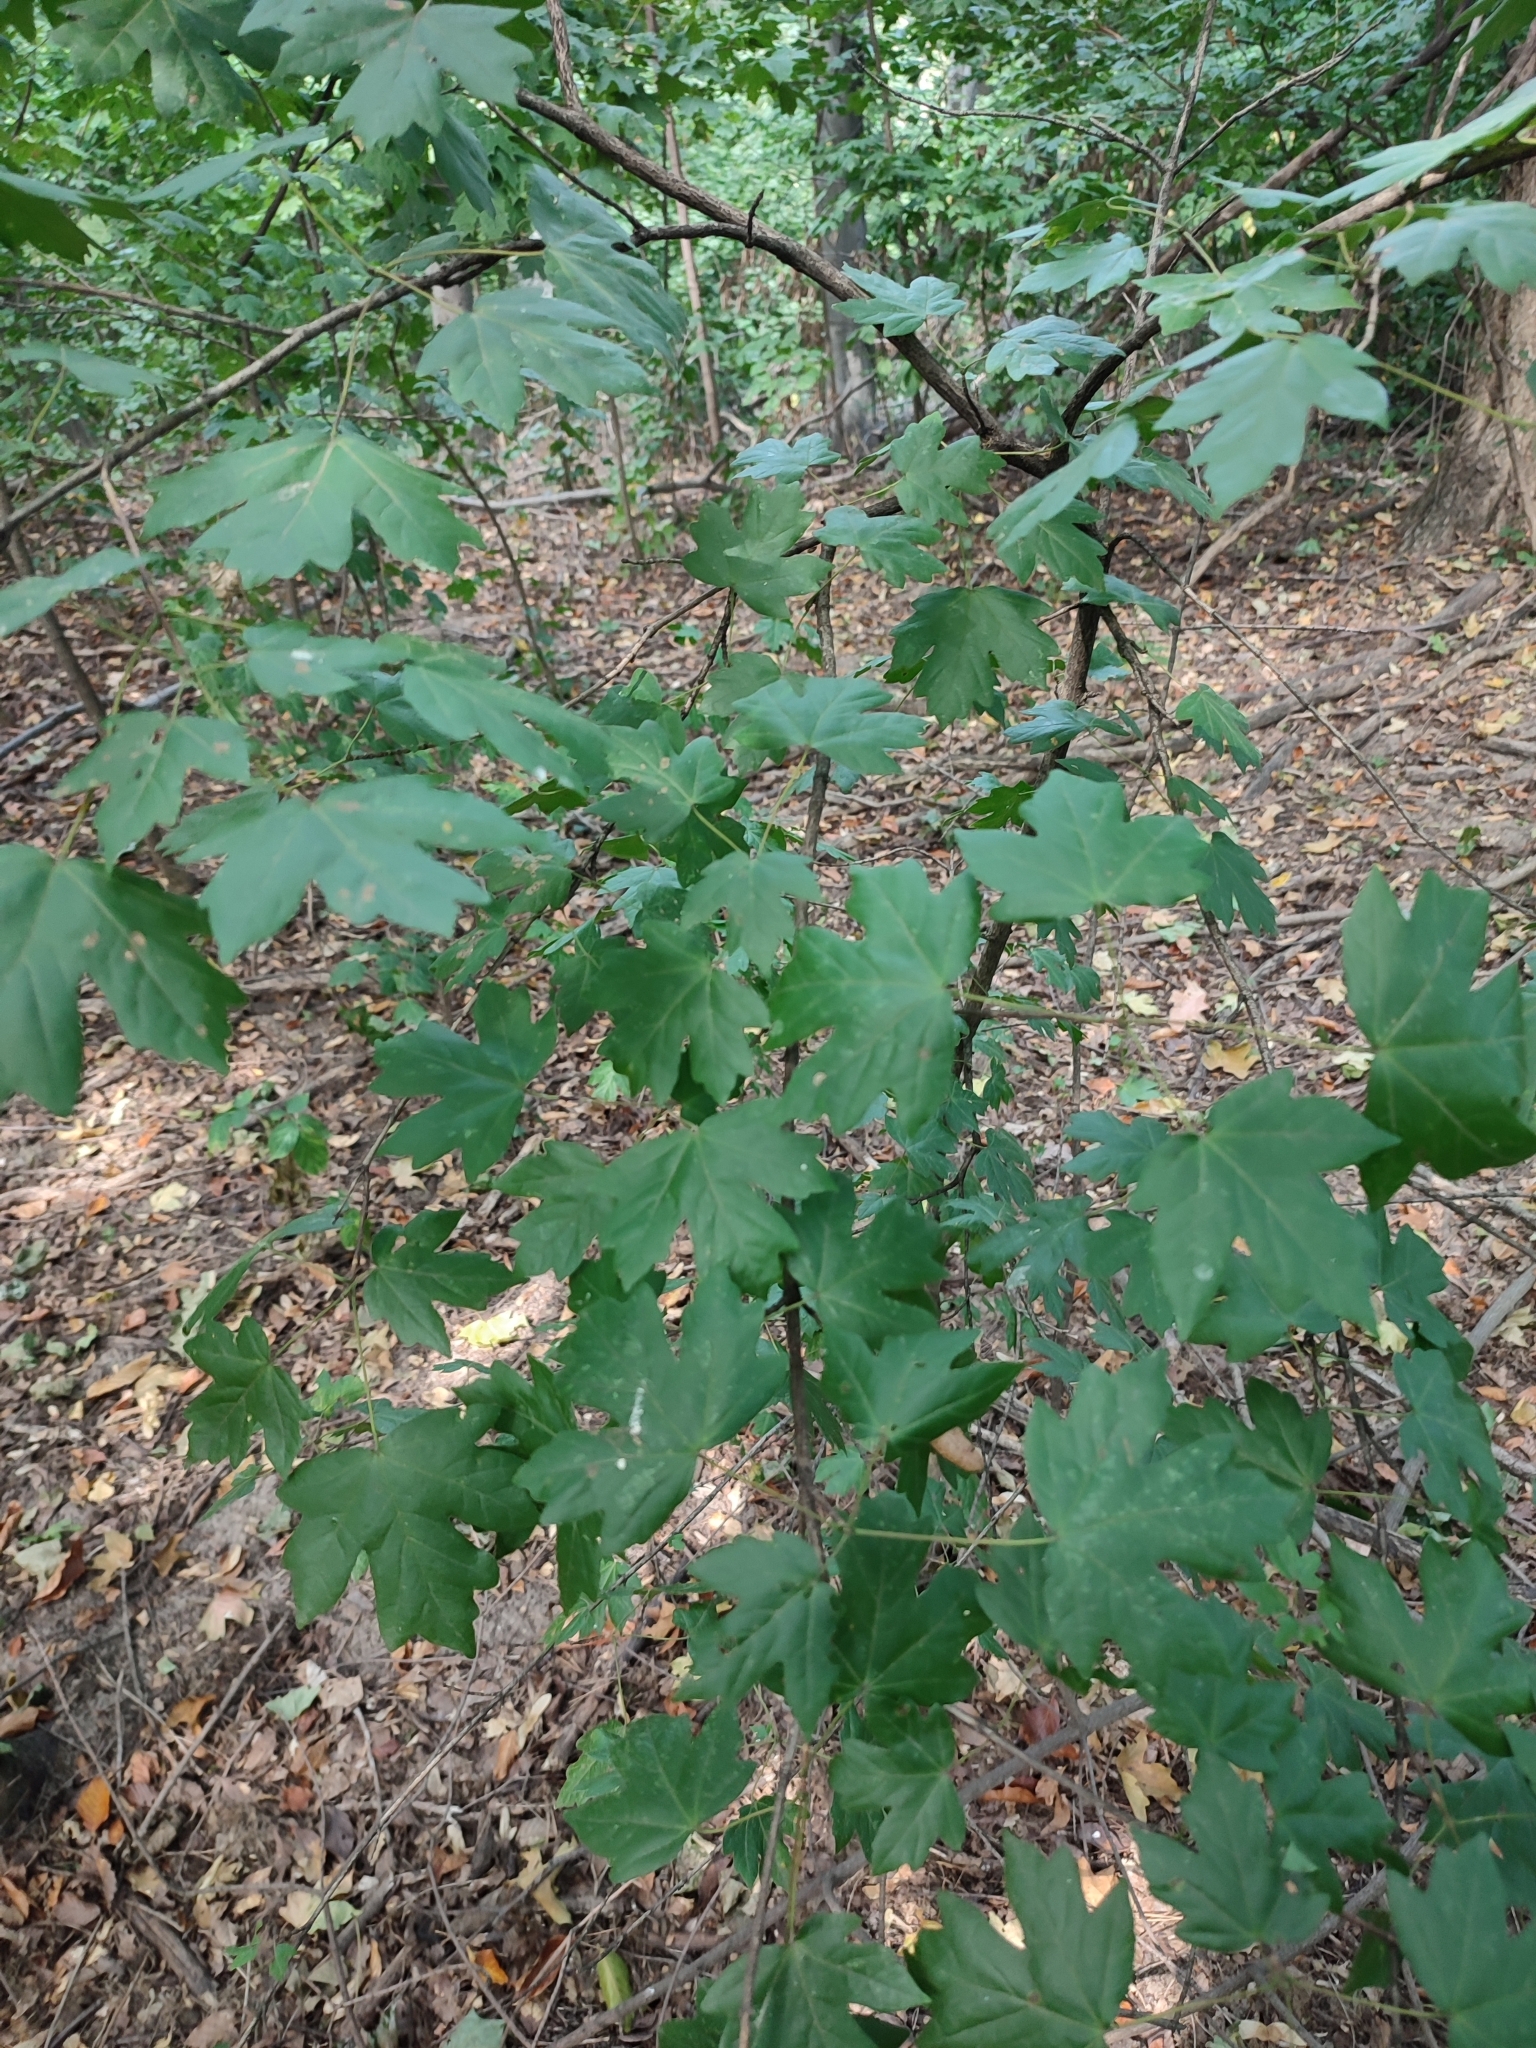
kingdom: Plantae
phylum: Tracheophyta
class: Magnoliopsida
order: Sapindales
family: Sapindaceae
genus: Acer
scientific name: Acer campestre
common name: Field maple
